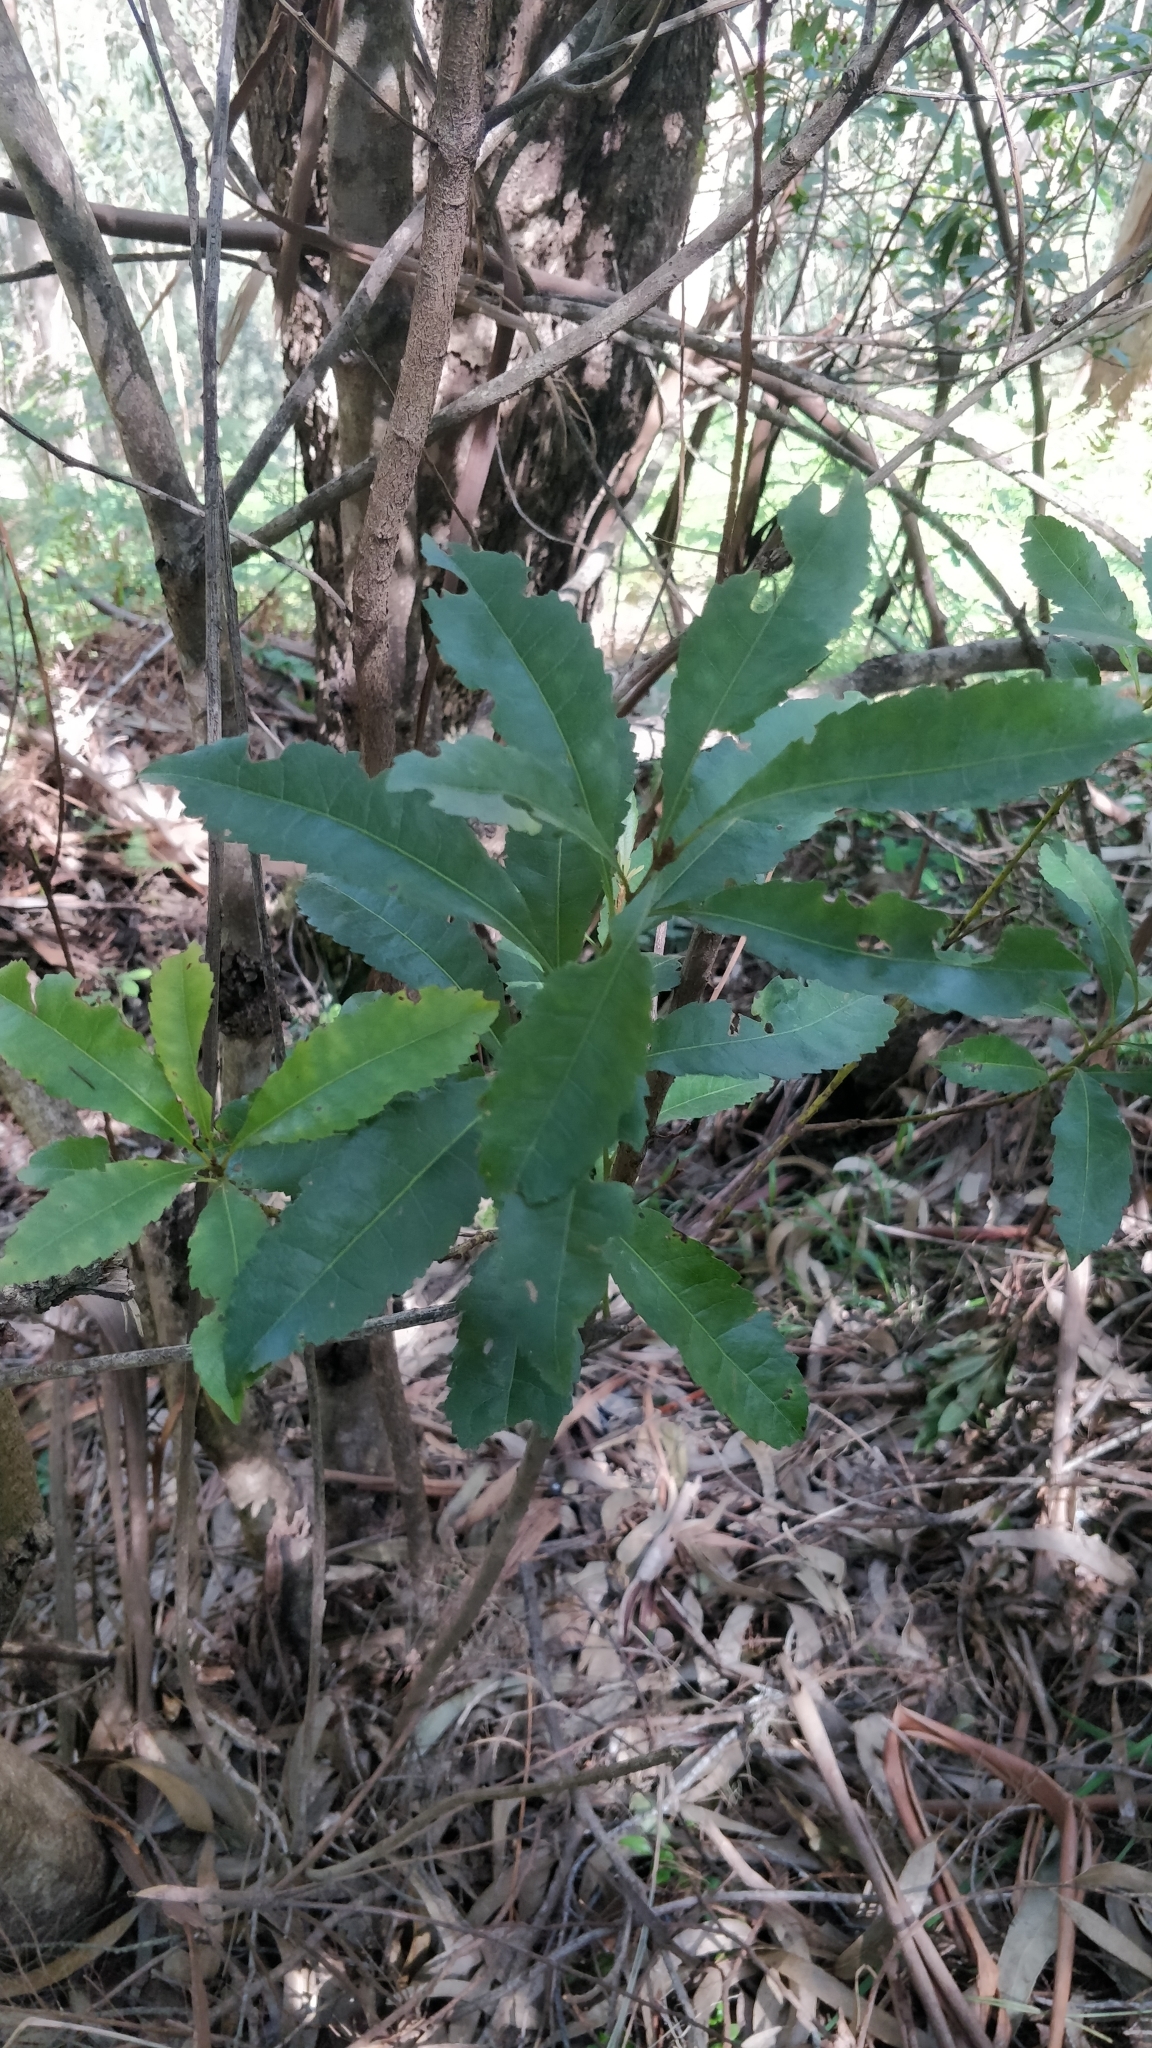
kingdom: Plantae
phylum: Tracheophyta
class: Magnoliopsida
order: Fagales
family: Myricaceae
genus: Morella
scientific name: Morella faya
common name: Firetree
